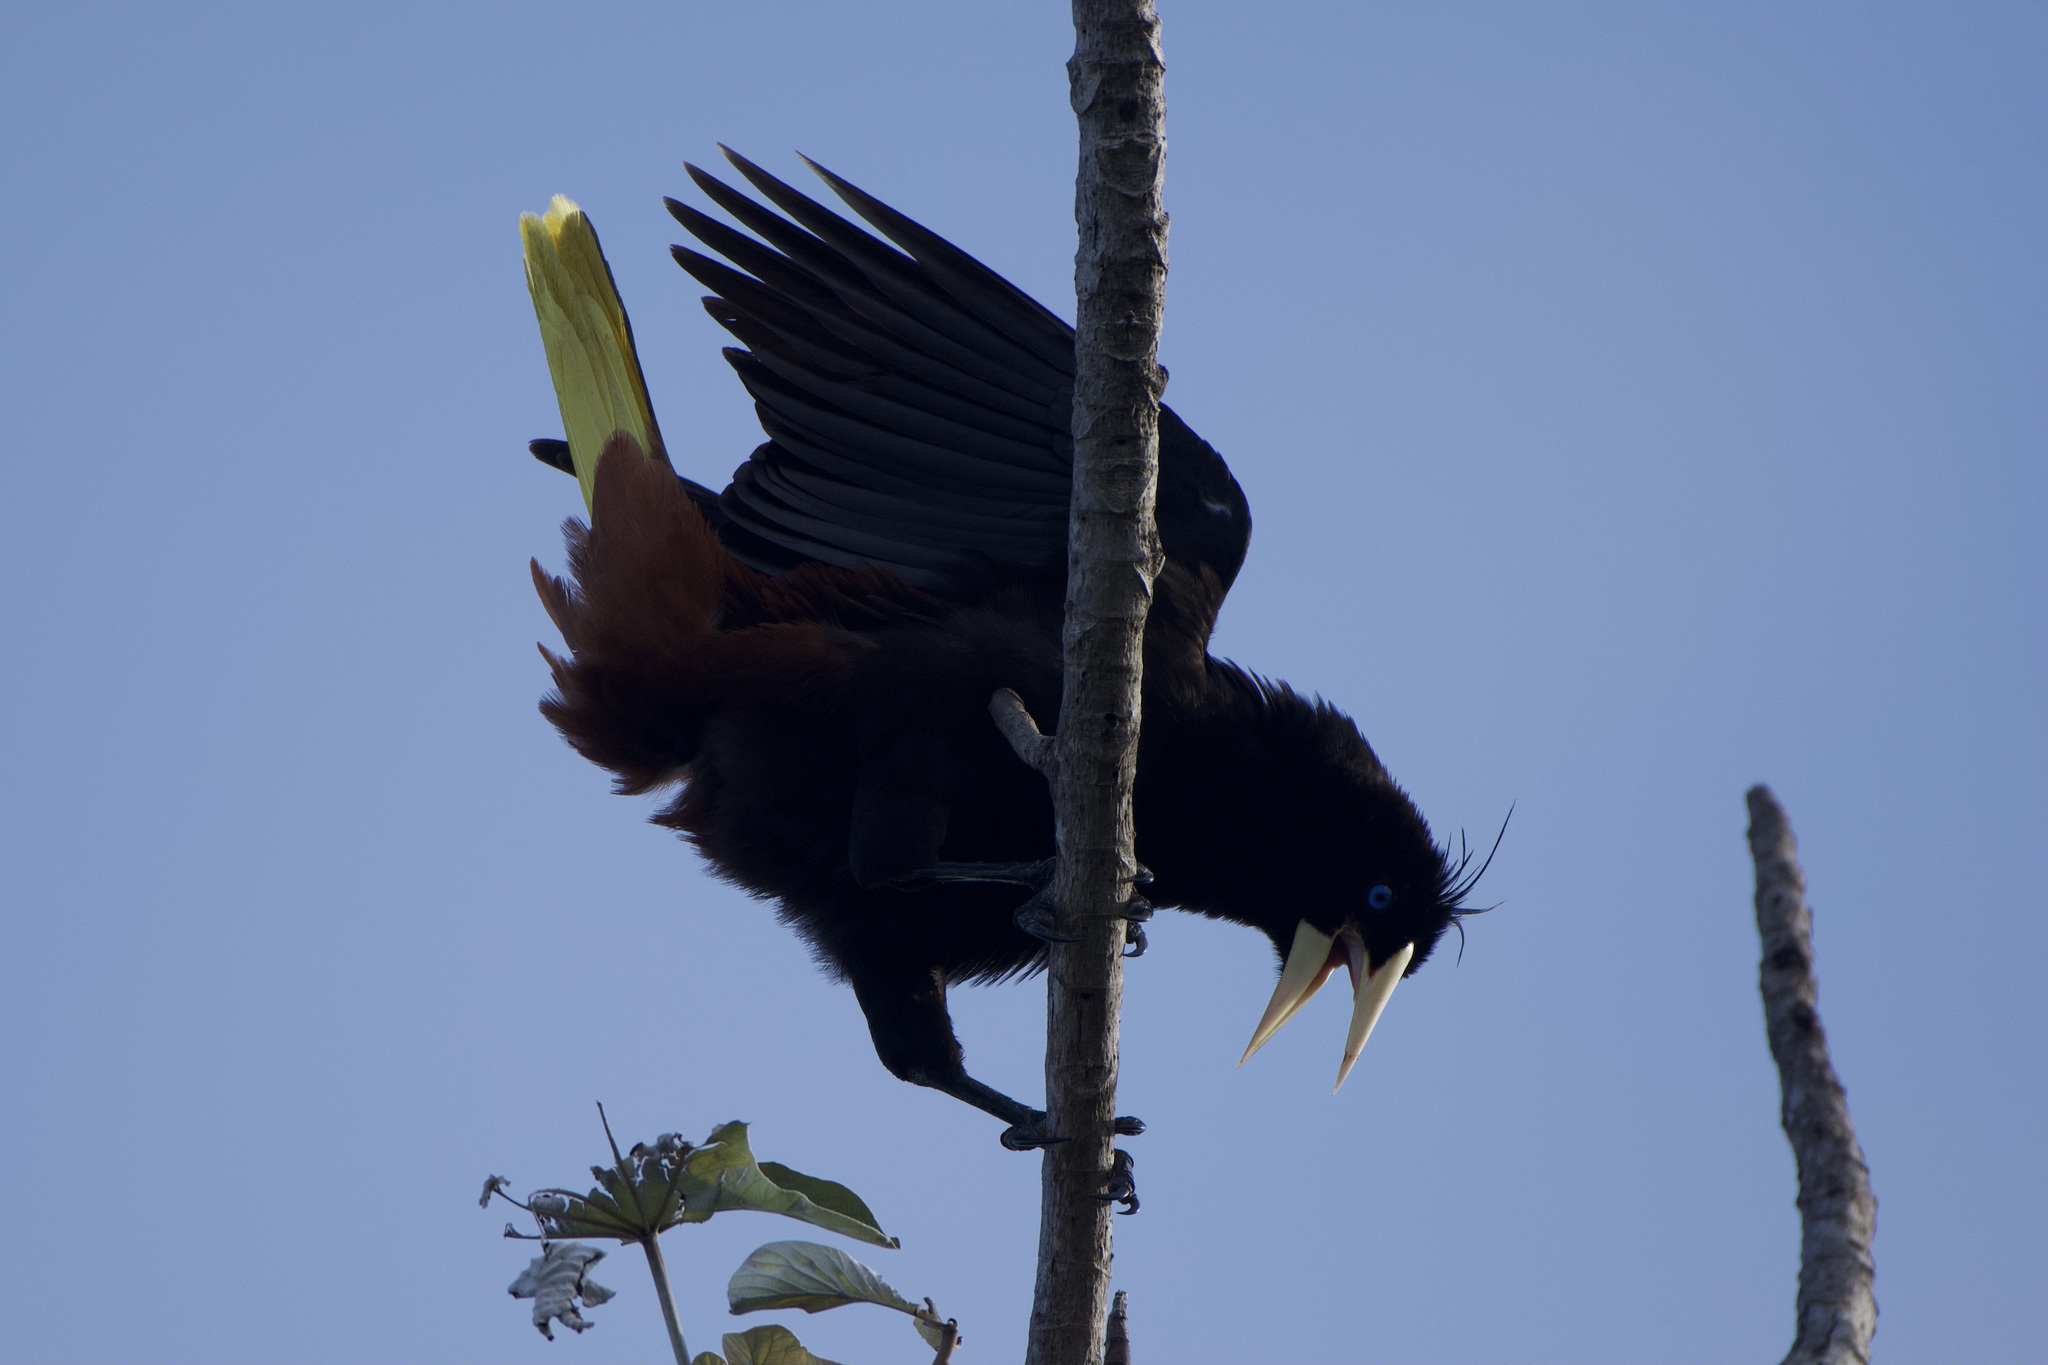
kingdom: Animalia
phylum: Chordata
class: Aves
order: Passeriformes
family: Icteridae
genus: Psarocolius
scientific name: Psarocolius decumanus
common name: Crested oropendola
